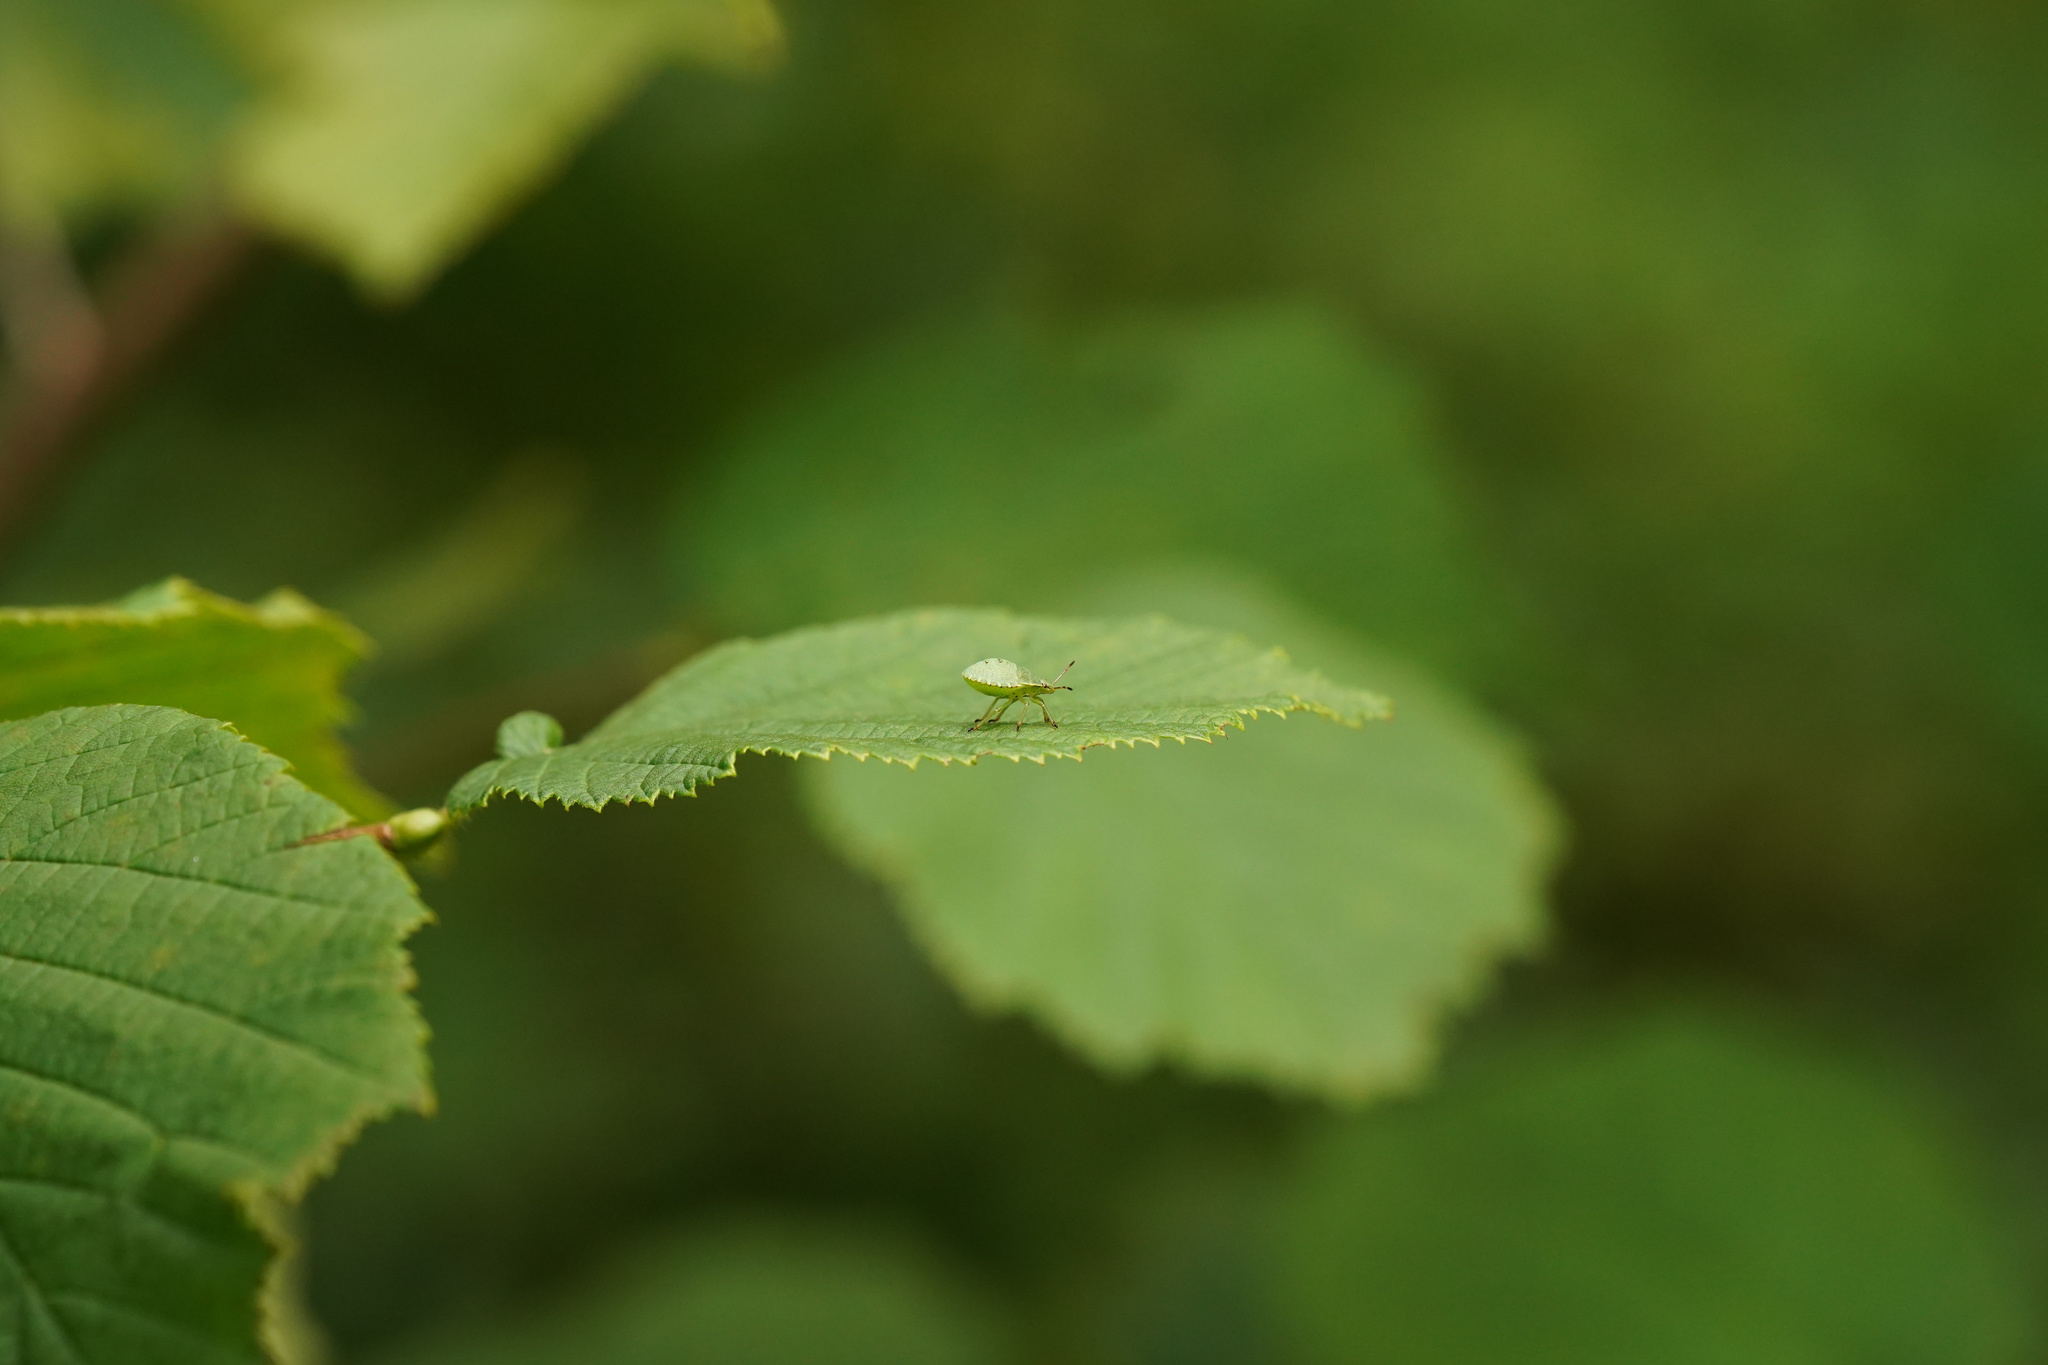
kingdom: Animalia
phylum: Arthropoda
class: Insecta
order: Hemiptera
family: Pentatomidae
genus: Palomena
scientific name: Palomena prasina
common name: Green shieldbug
